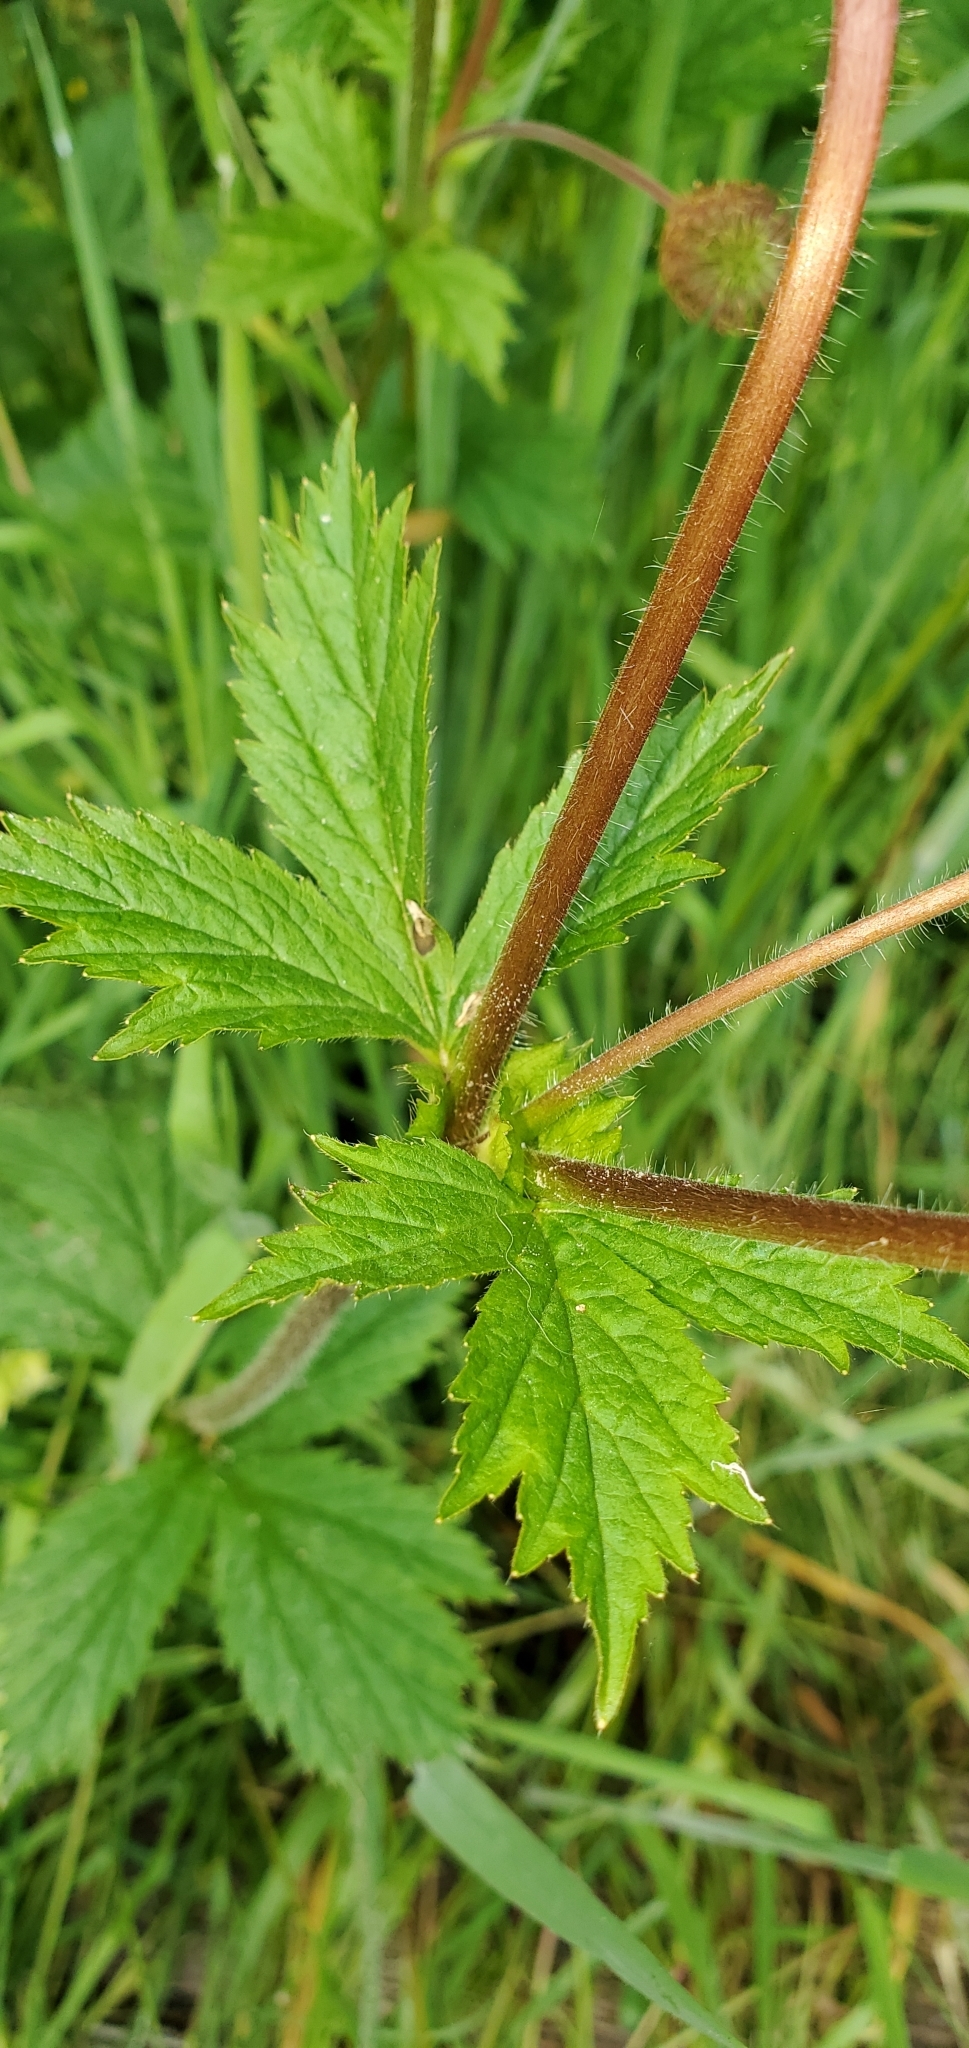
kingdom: Plantae
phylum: Tracheophyta
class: Magnoliopsida
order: Rosales
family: Rosaceae
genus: Geum
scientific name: Geum macrophyllum
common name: Large-leaved avens
